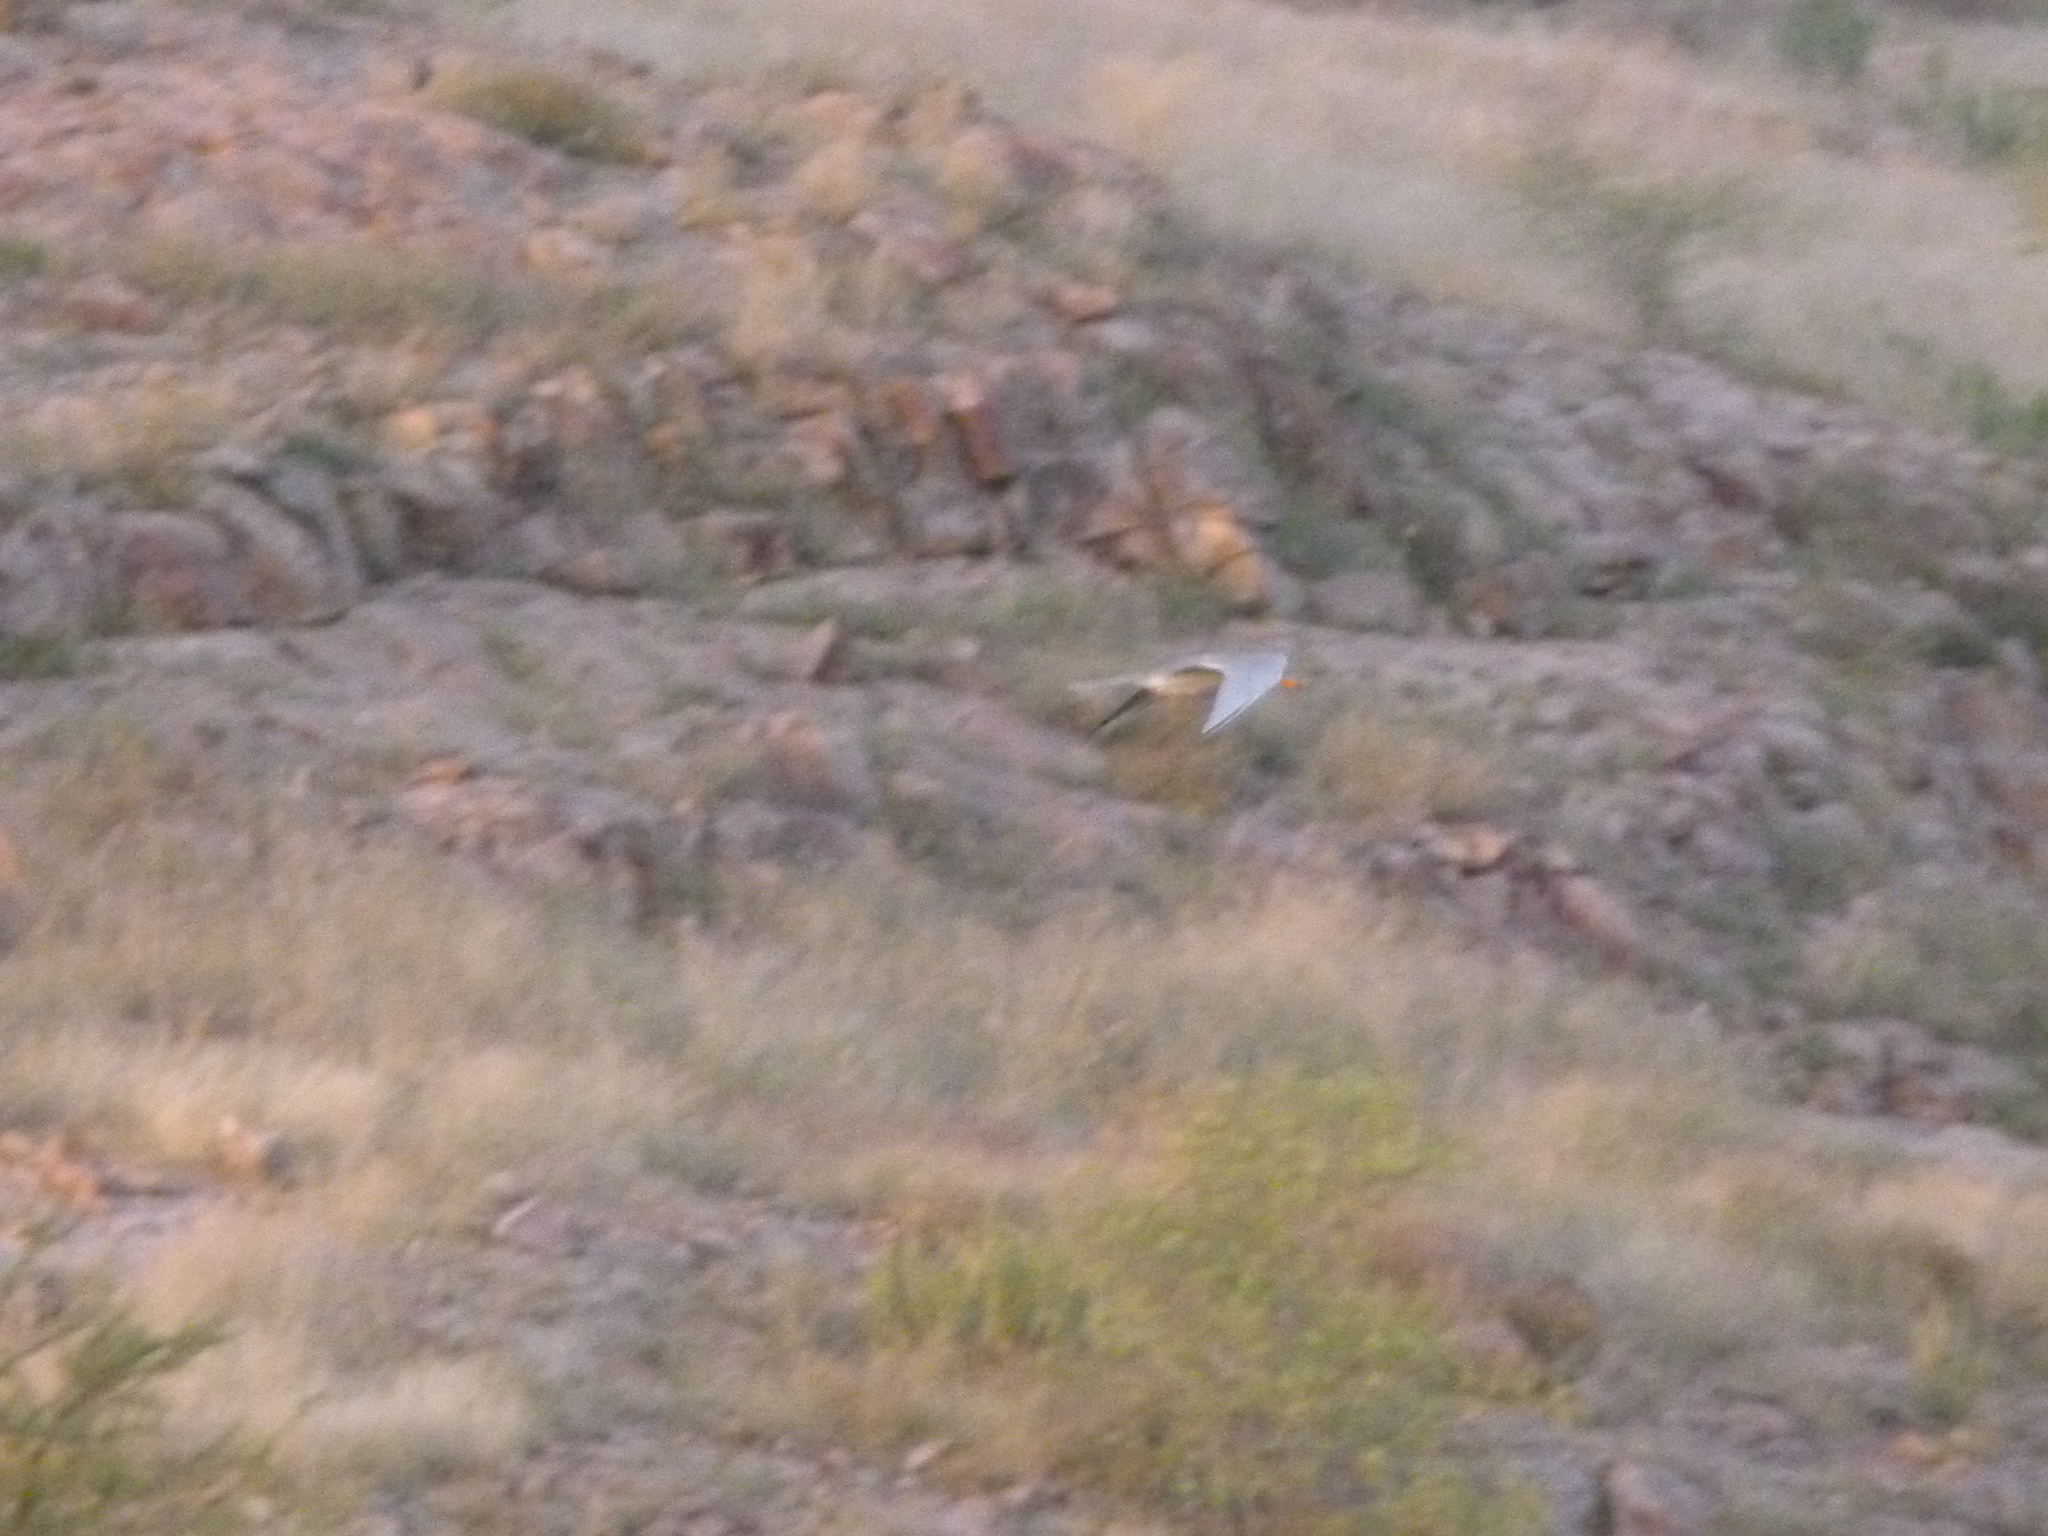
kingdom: Animalia
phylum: Chordata
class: Aves
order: Charadriiformes
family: Laridae
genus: Sterna
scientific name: Sterna aurantia
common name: River tern
